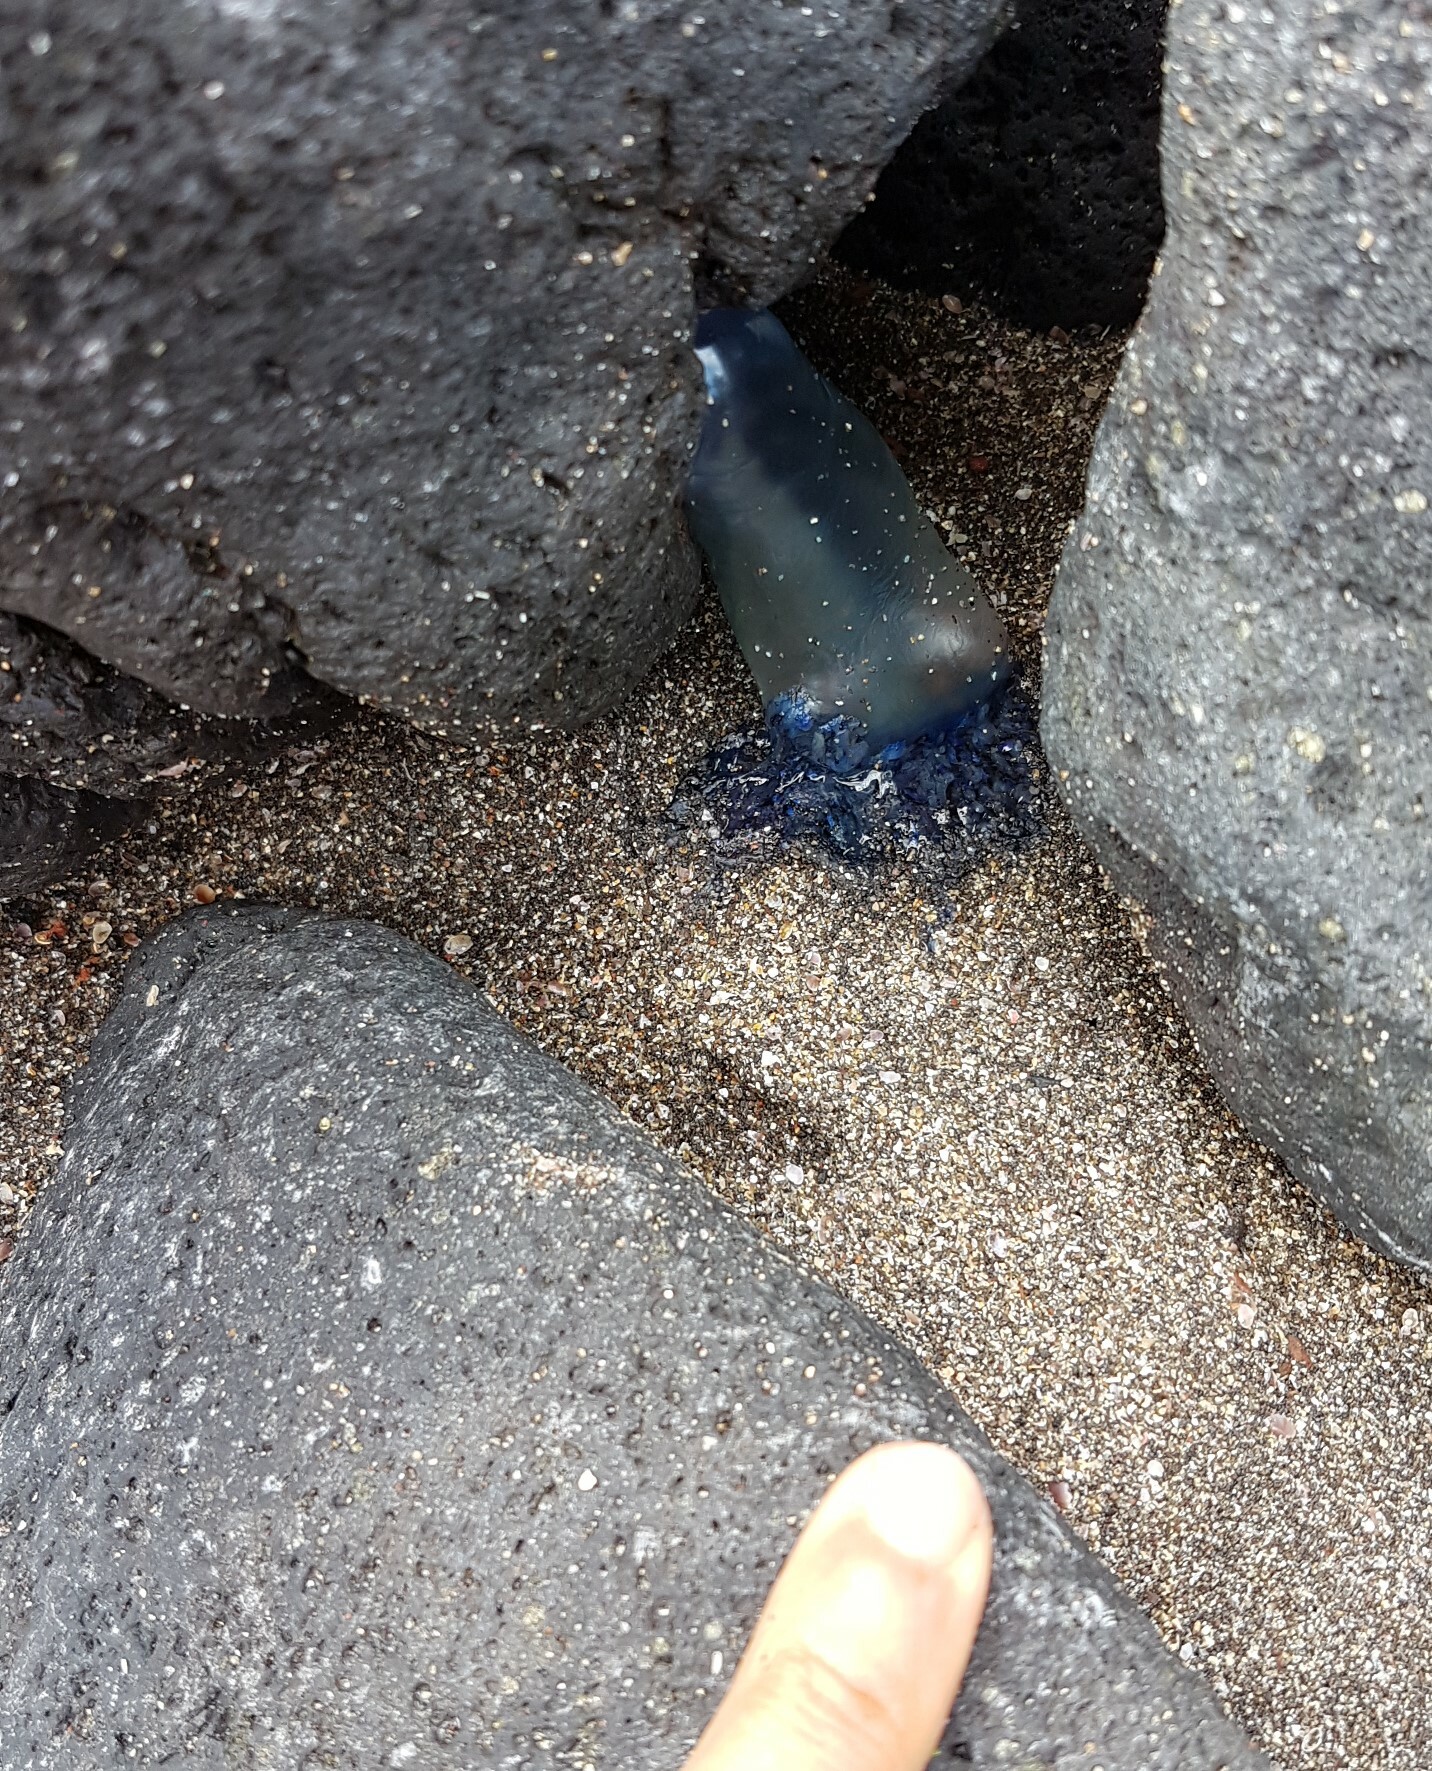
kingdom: Animalia
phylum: Cnidaria
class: Hydrozoa
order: Siphonophorae
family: Physaliidae
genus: Physalia
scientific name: Physalia physalis
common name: Portuguese man-of-war
